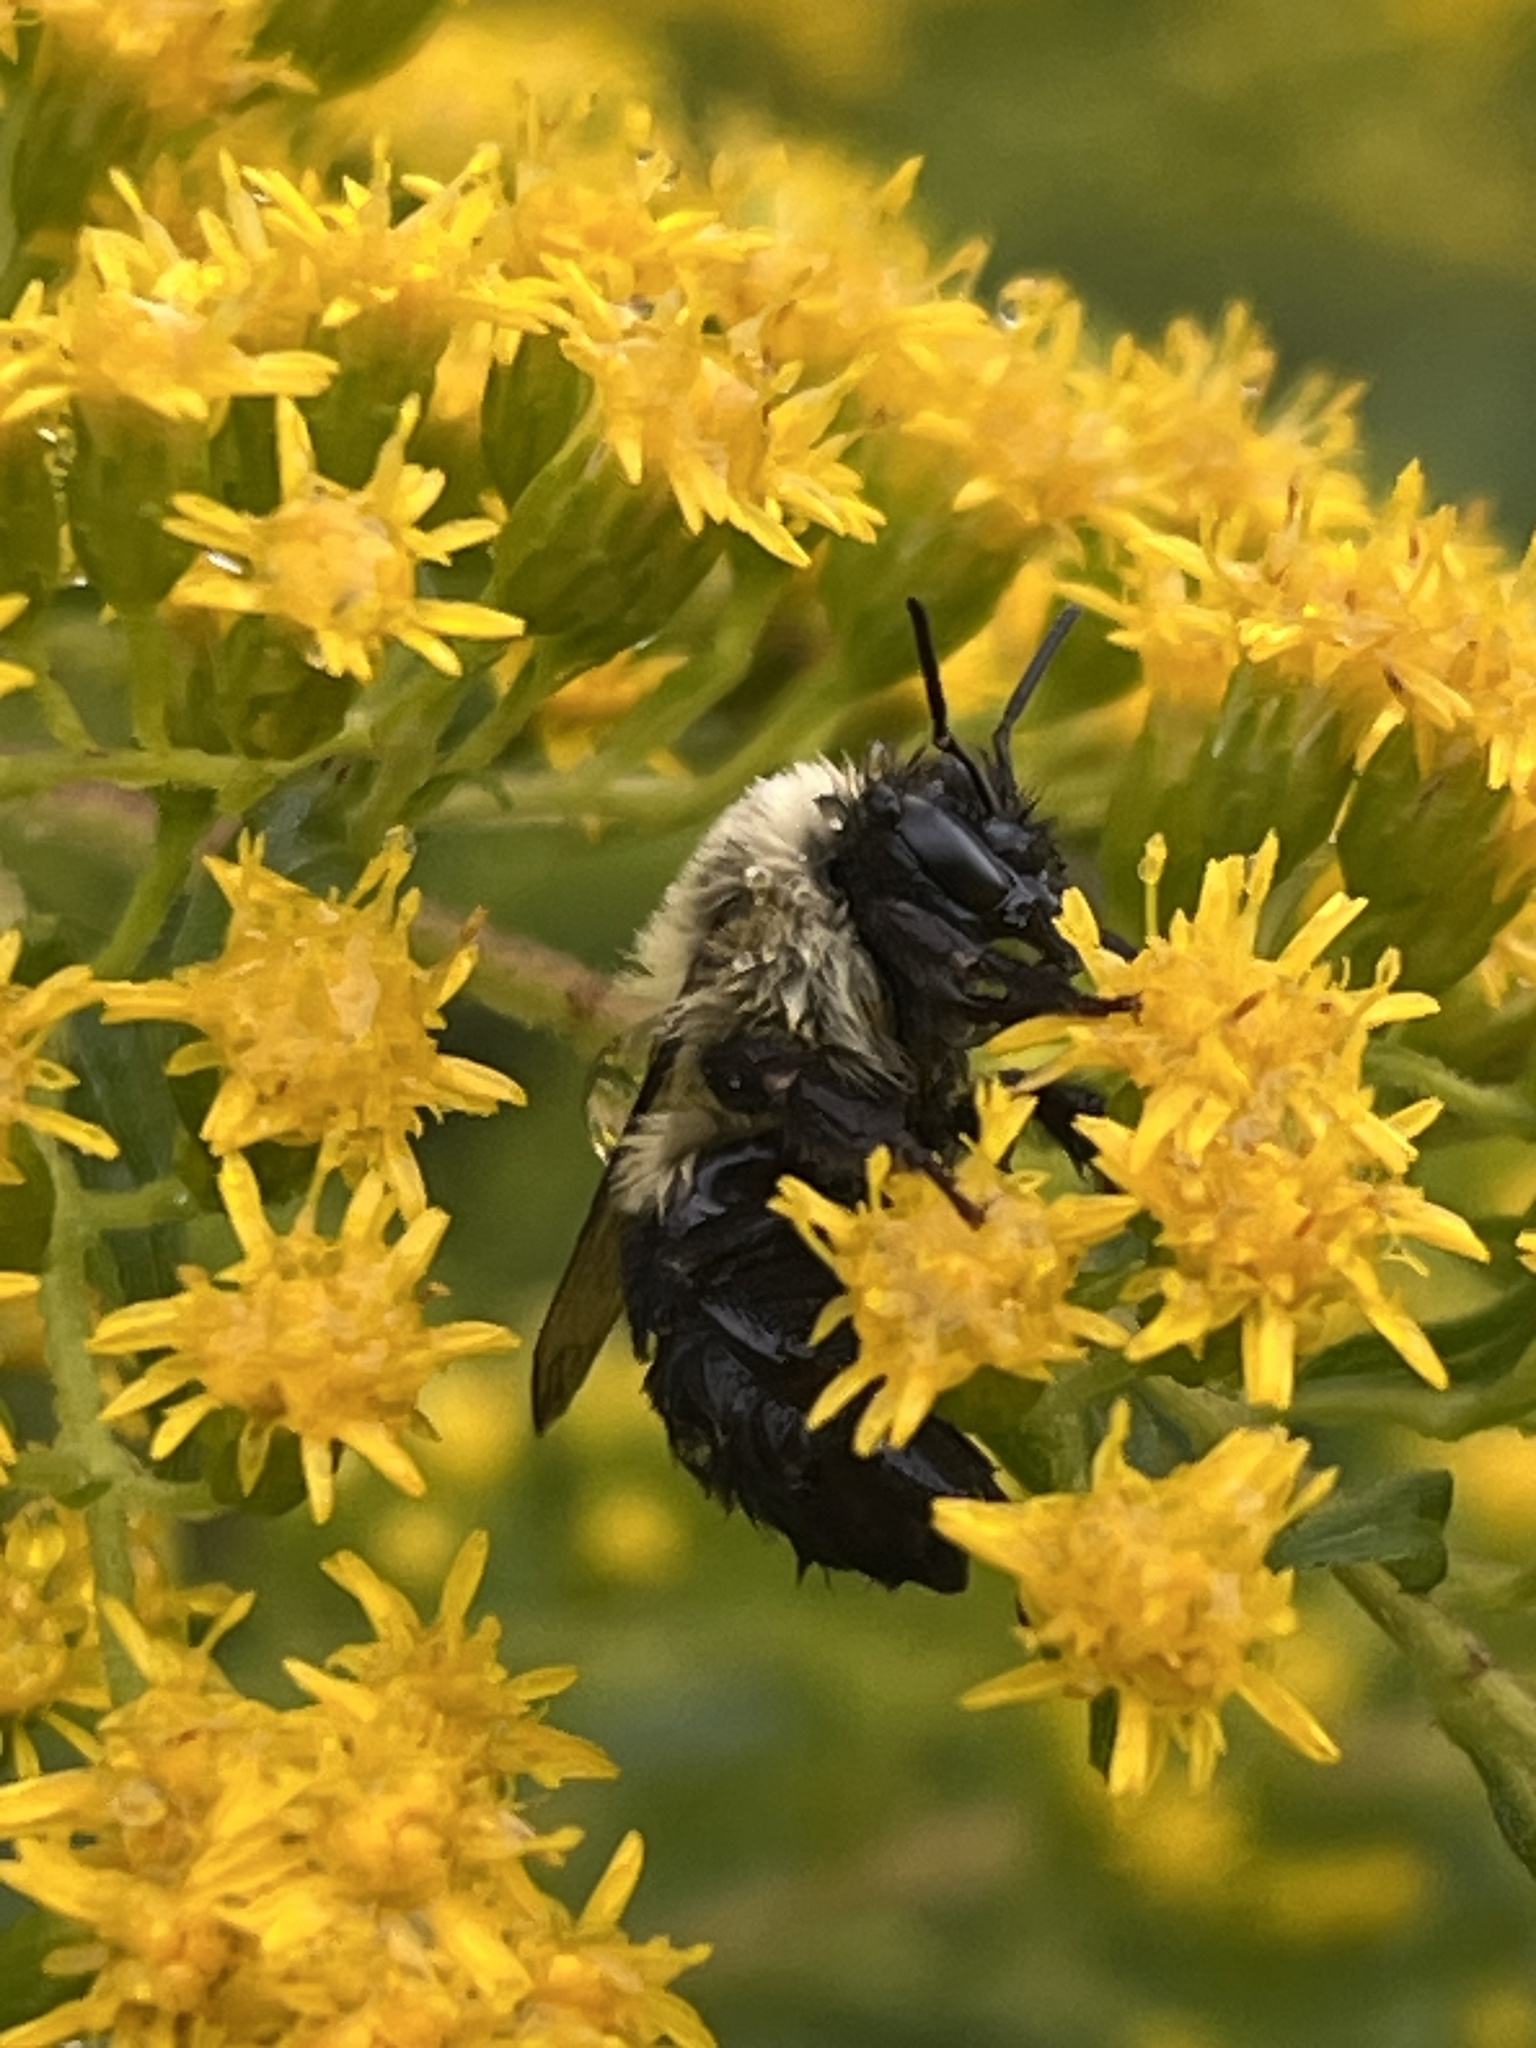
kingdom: Animalia
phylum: Arthropoda
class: Insecta
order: Hymenoptera
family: Apidae
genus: Bombus
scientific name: Bombus impatiens
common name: Common eastern bumble bee
